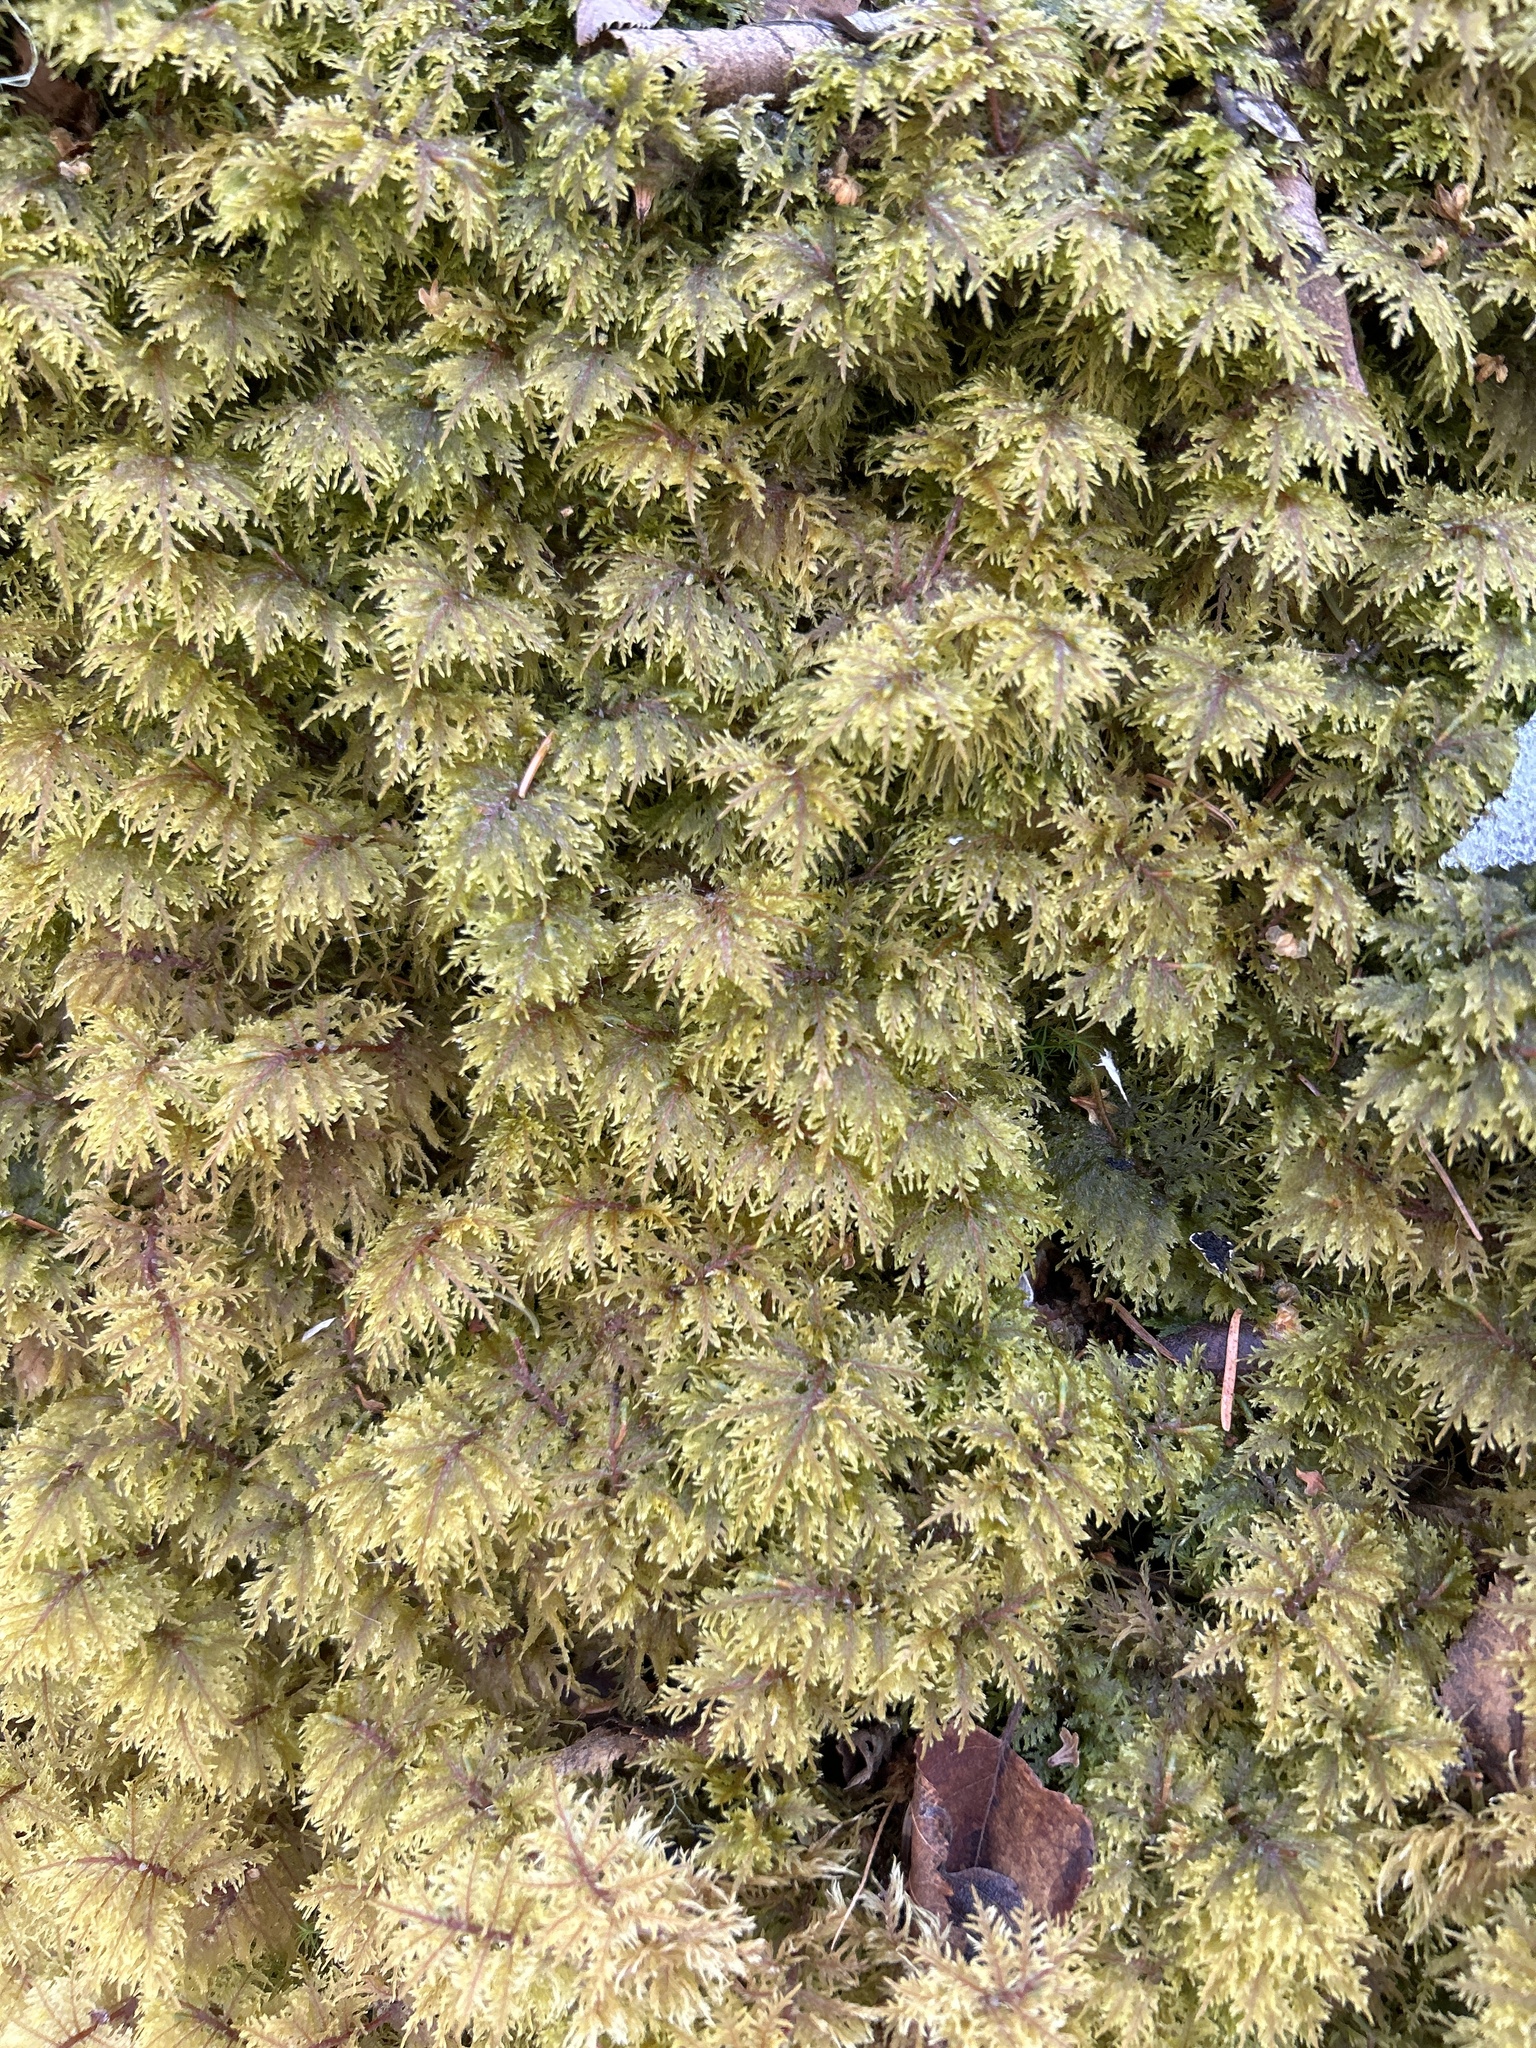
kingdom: Plantae
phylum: Bryophyta
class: Bryopsida
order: Hypnales
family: Hylocomiaceae
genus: Hylocomium
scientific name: Hylocomium splendens
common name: Stairstep moss
